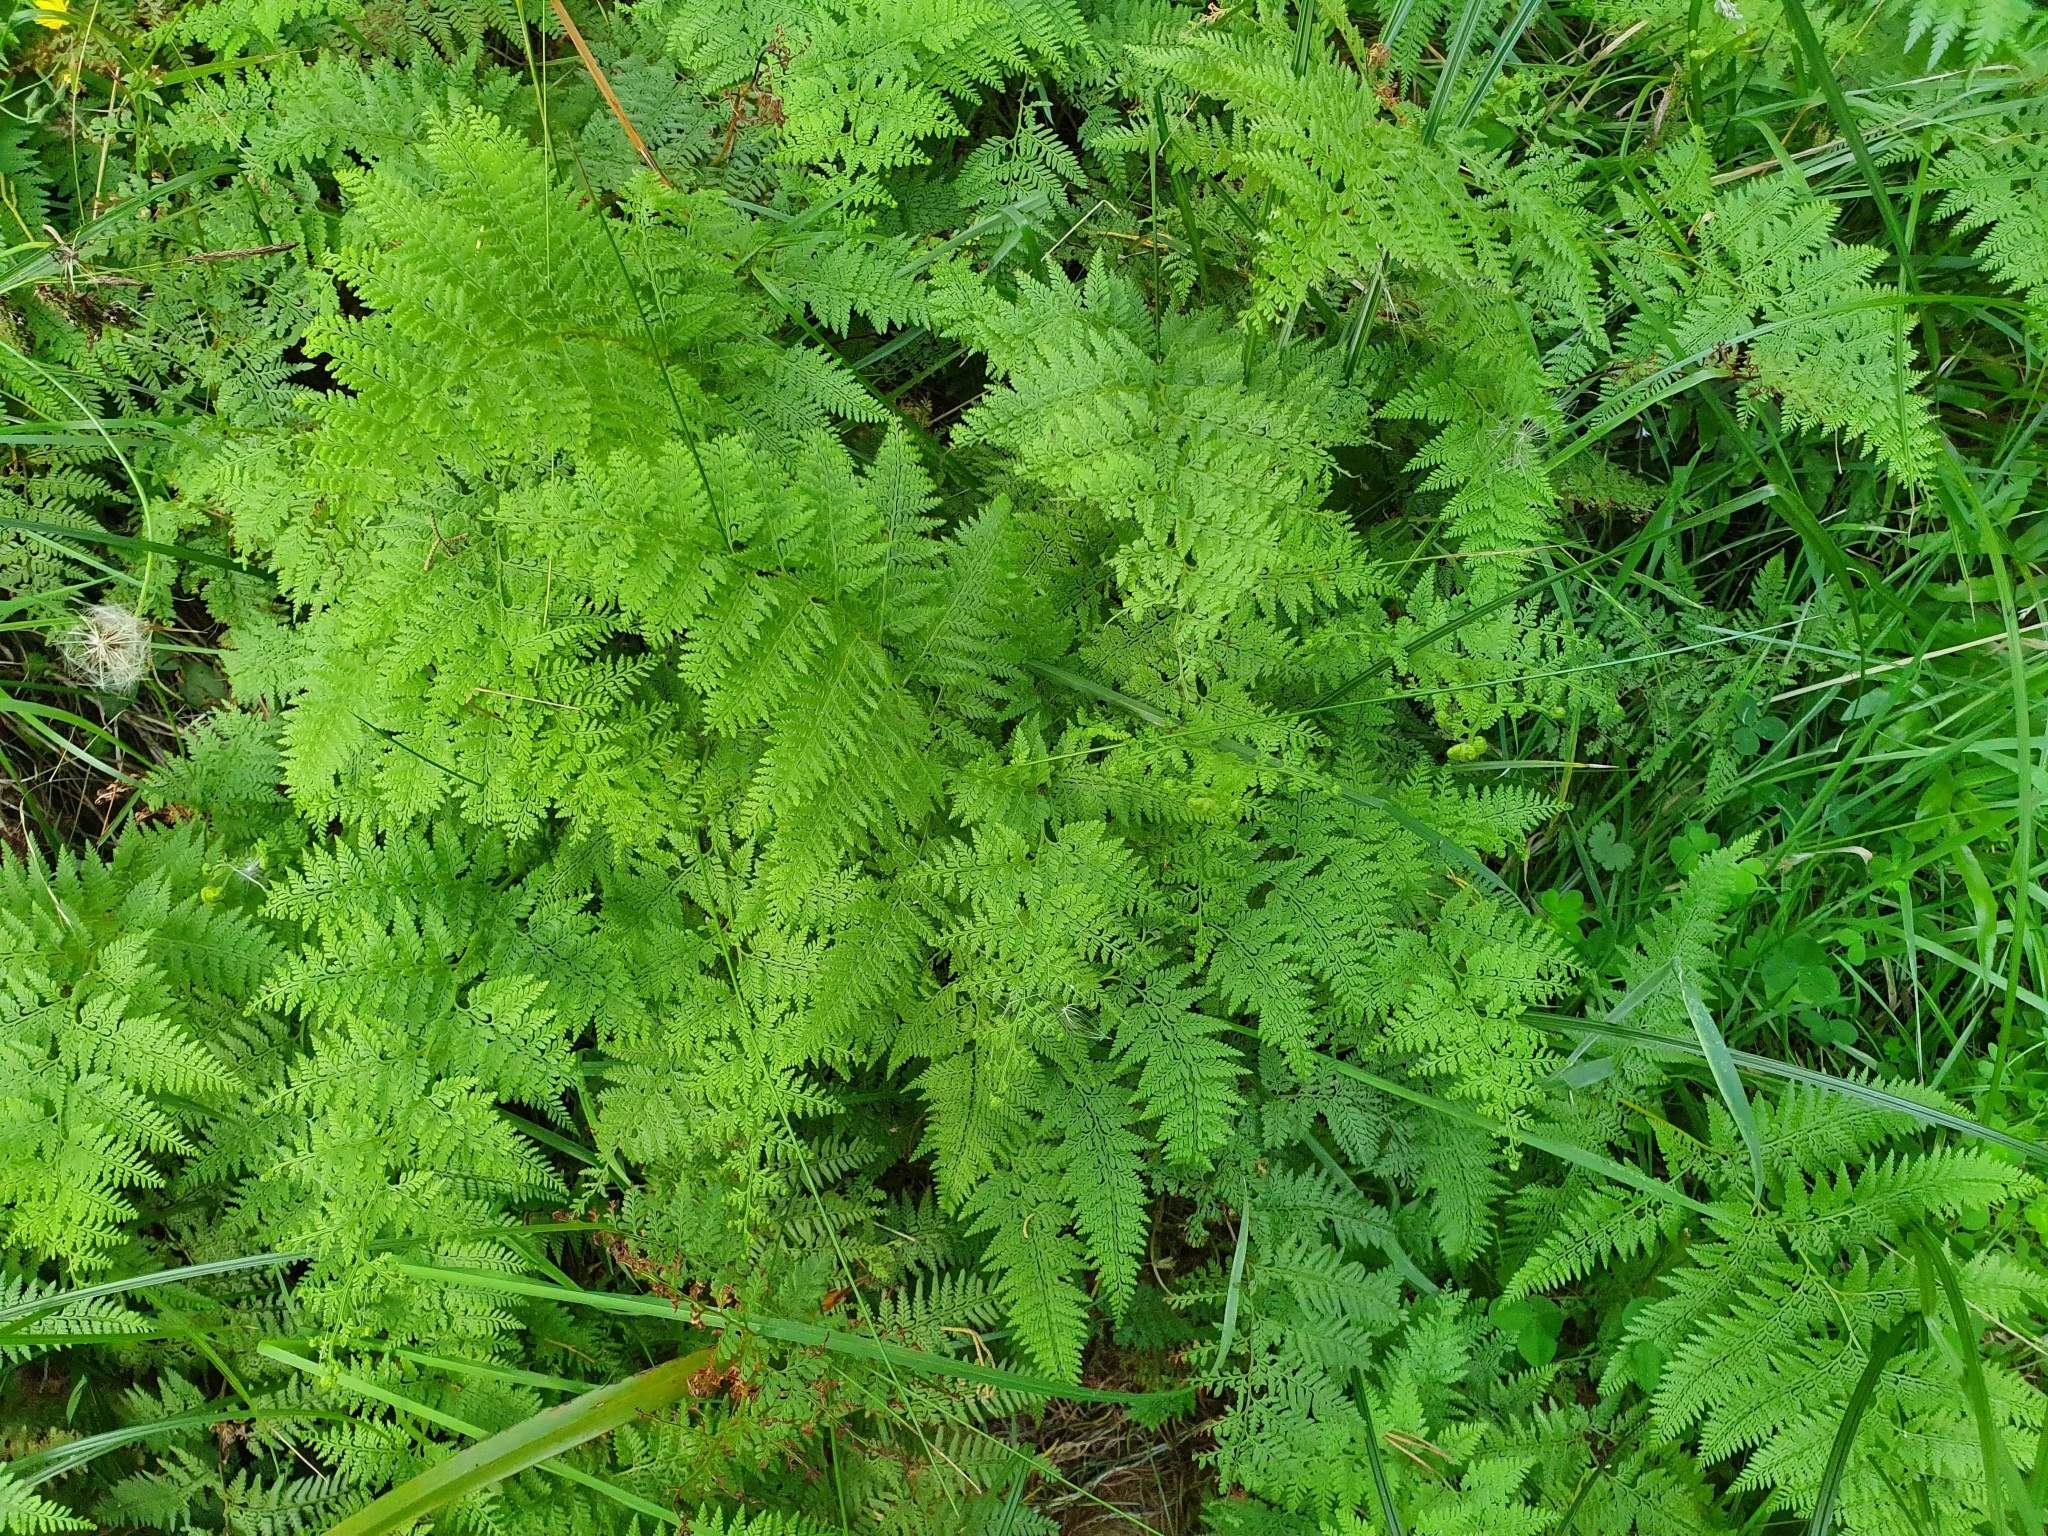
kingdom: Plantae
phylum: Tracheophyta
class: Polypodiopsida
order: Polypodiales
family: Dennstaedtiaceae
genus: Paesia
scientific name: Paesia scaberula
